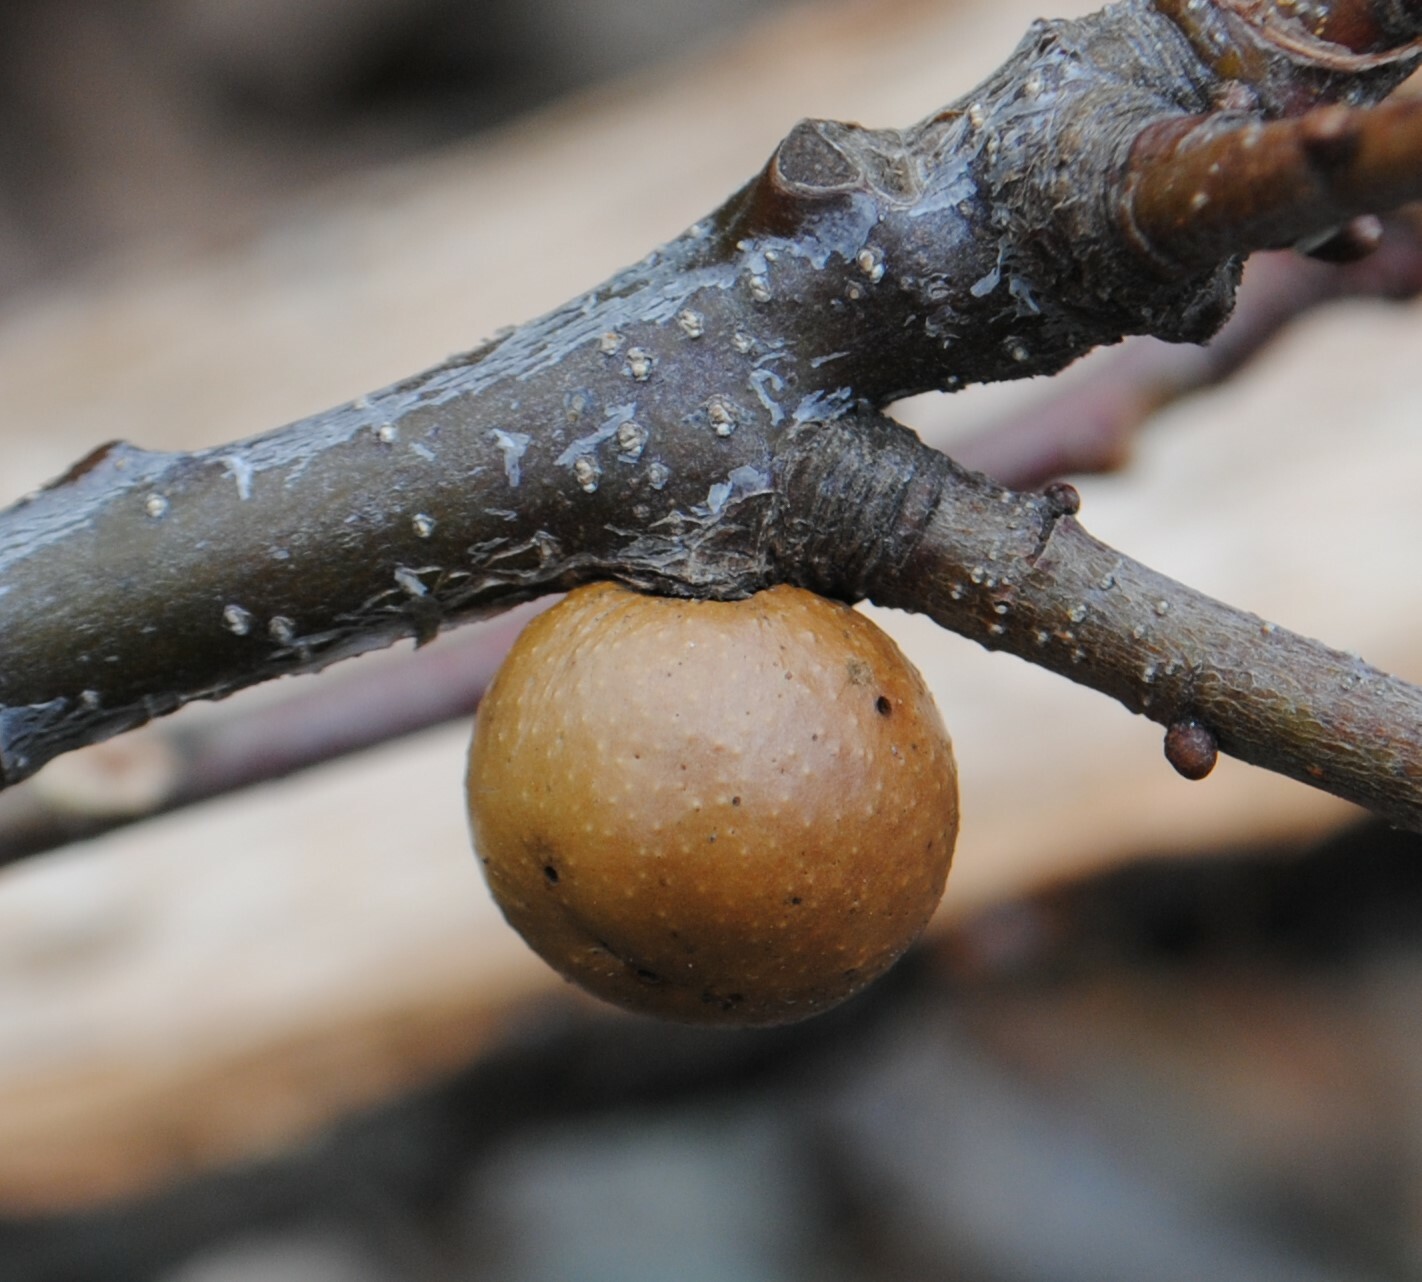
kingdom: Animalia
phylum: Arthropoda
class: Insecta
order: Hymenoptera
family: Cynipidae
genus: Disholcaspis
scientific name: Disholcaspis quercusglobulus
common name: Round bullet gall wasp
